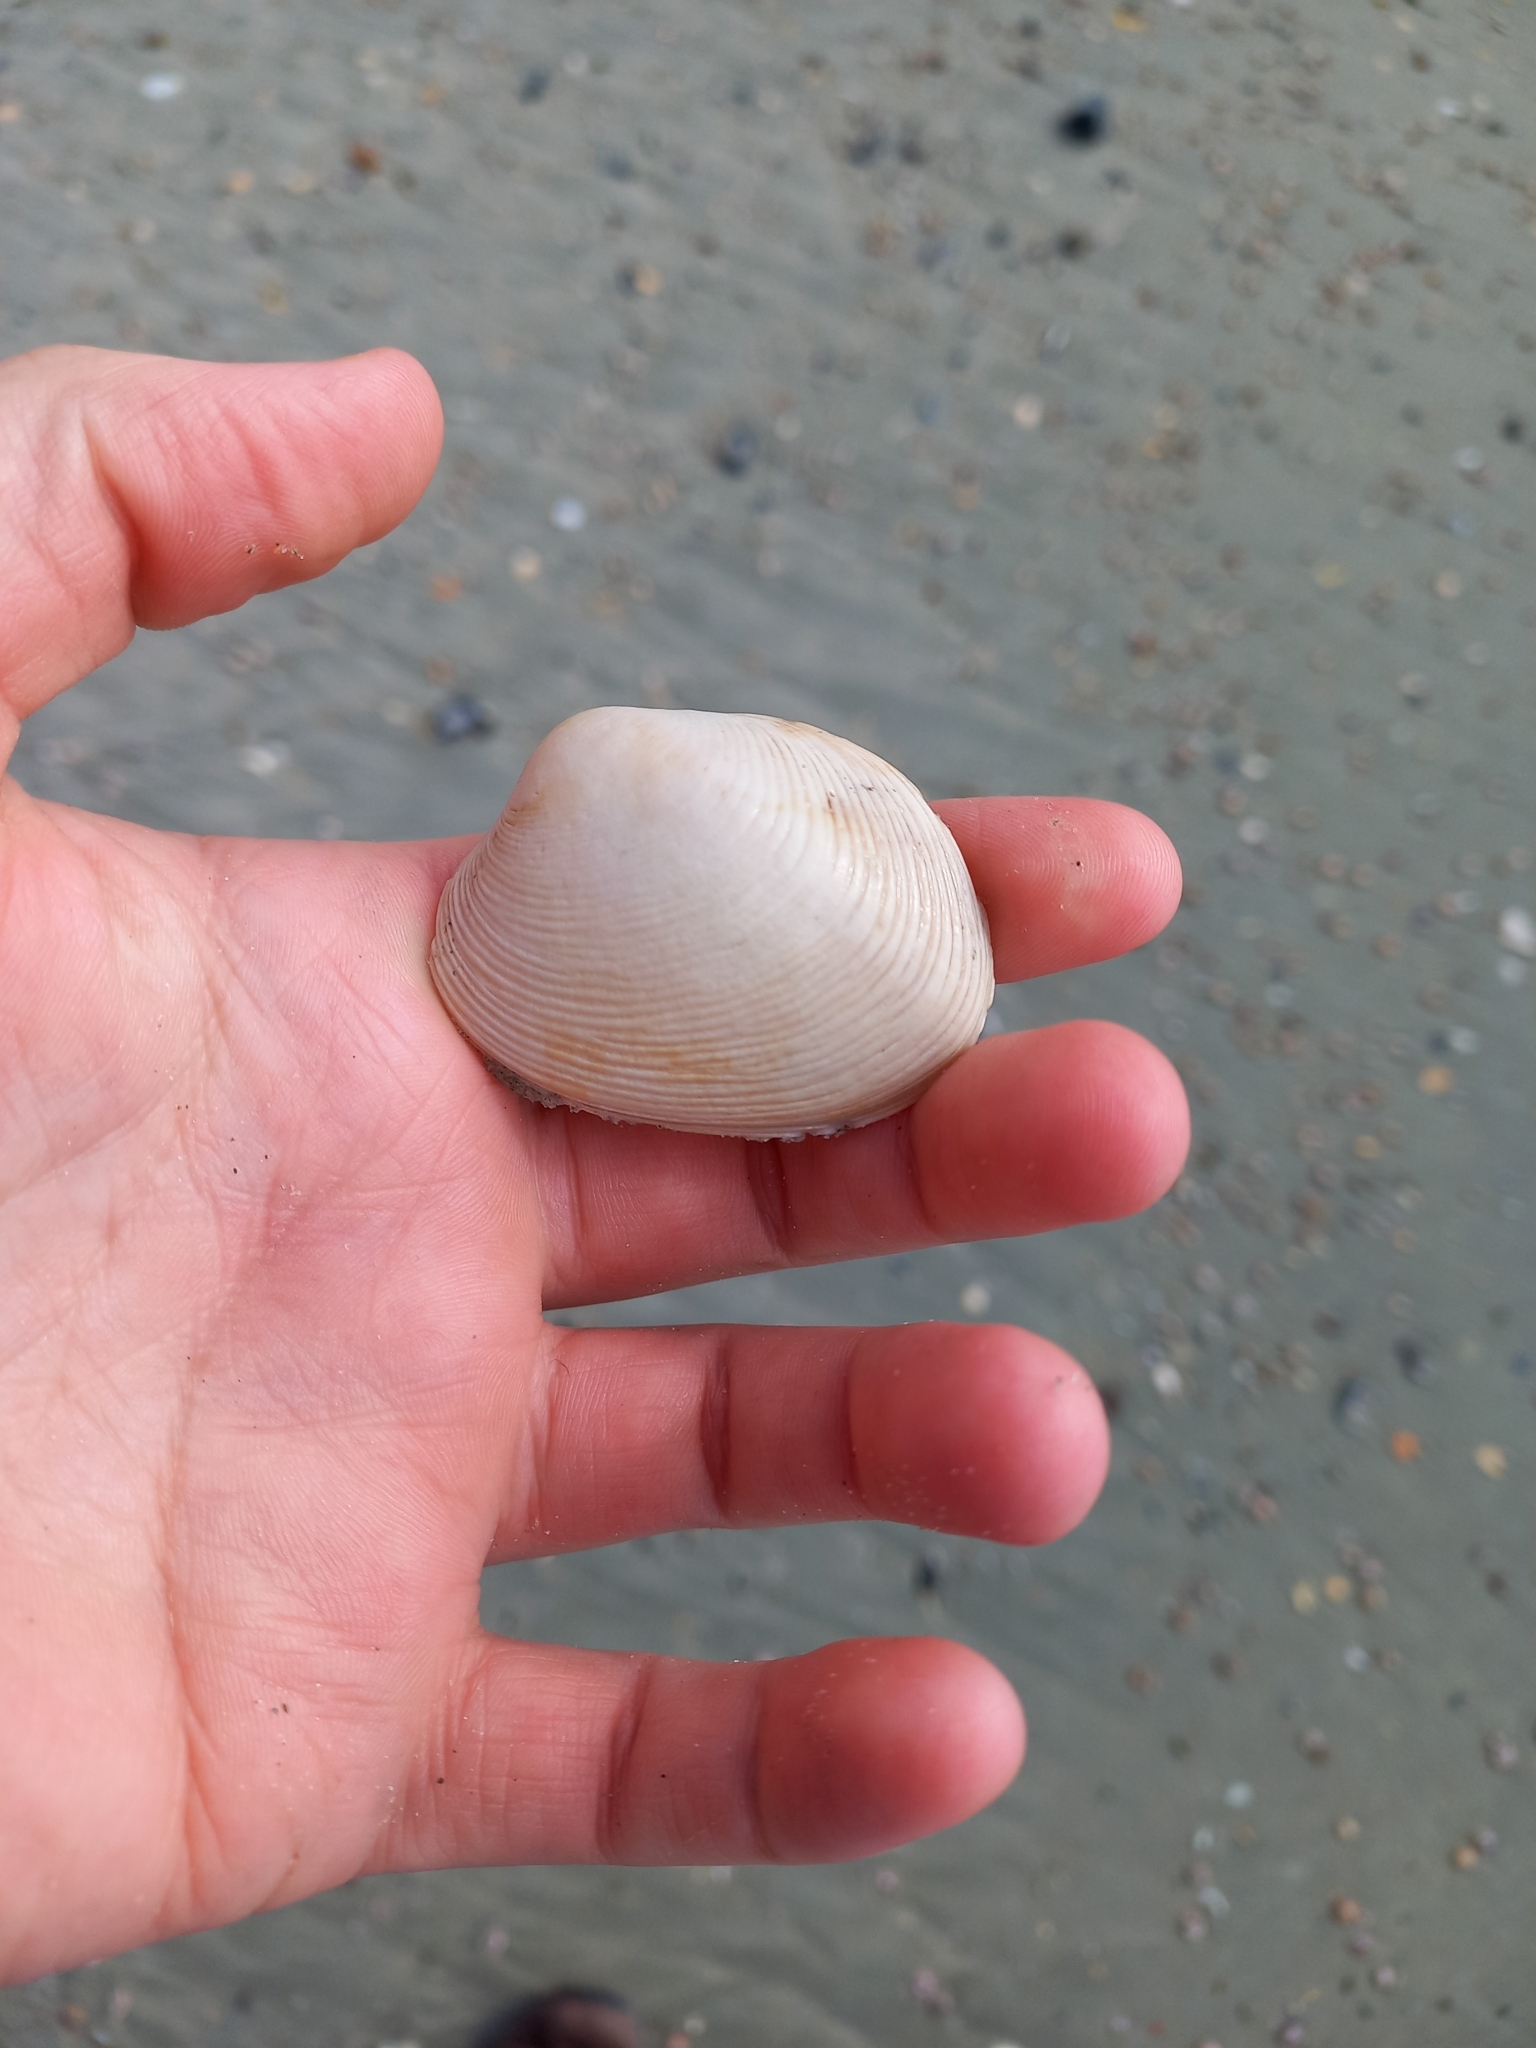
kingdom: Animalia
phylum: Mollusca
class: Bivalvia
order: Venerida
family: Veneridae
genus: Venerupis
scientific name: Venerupis largillierti
